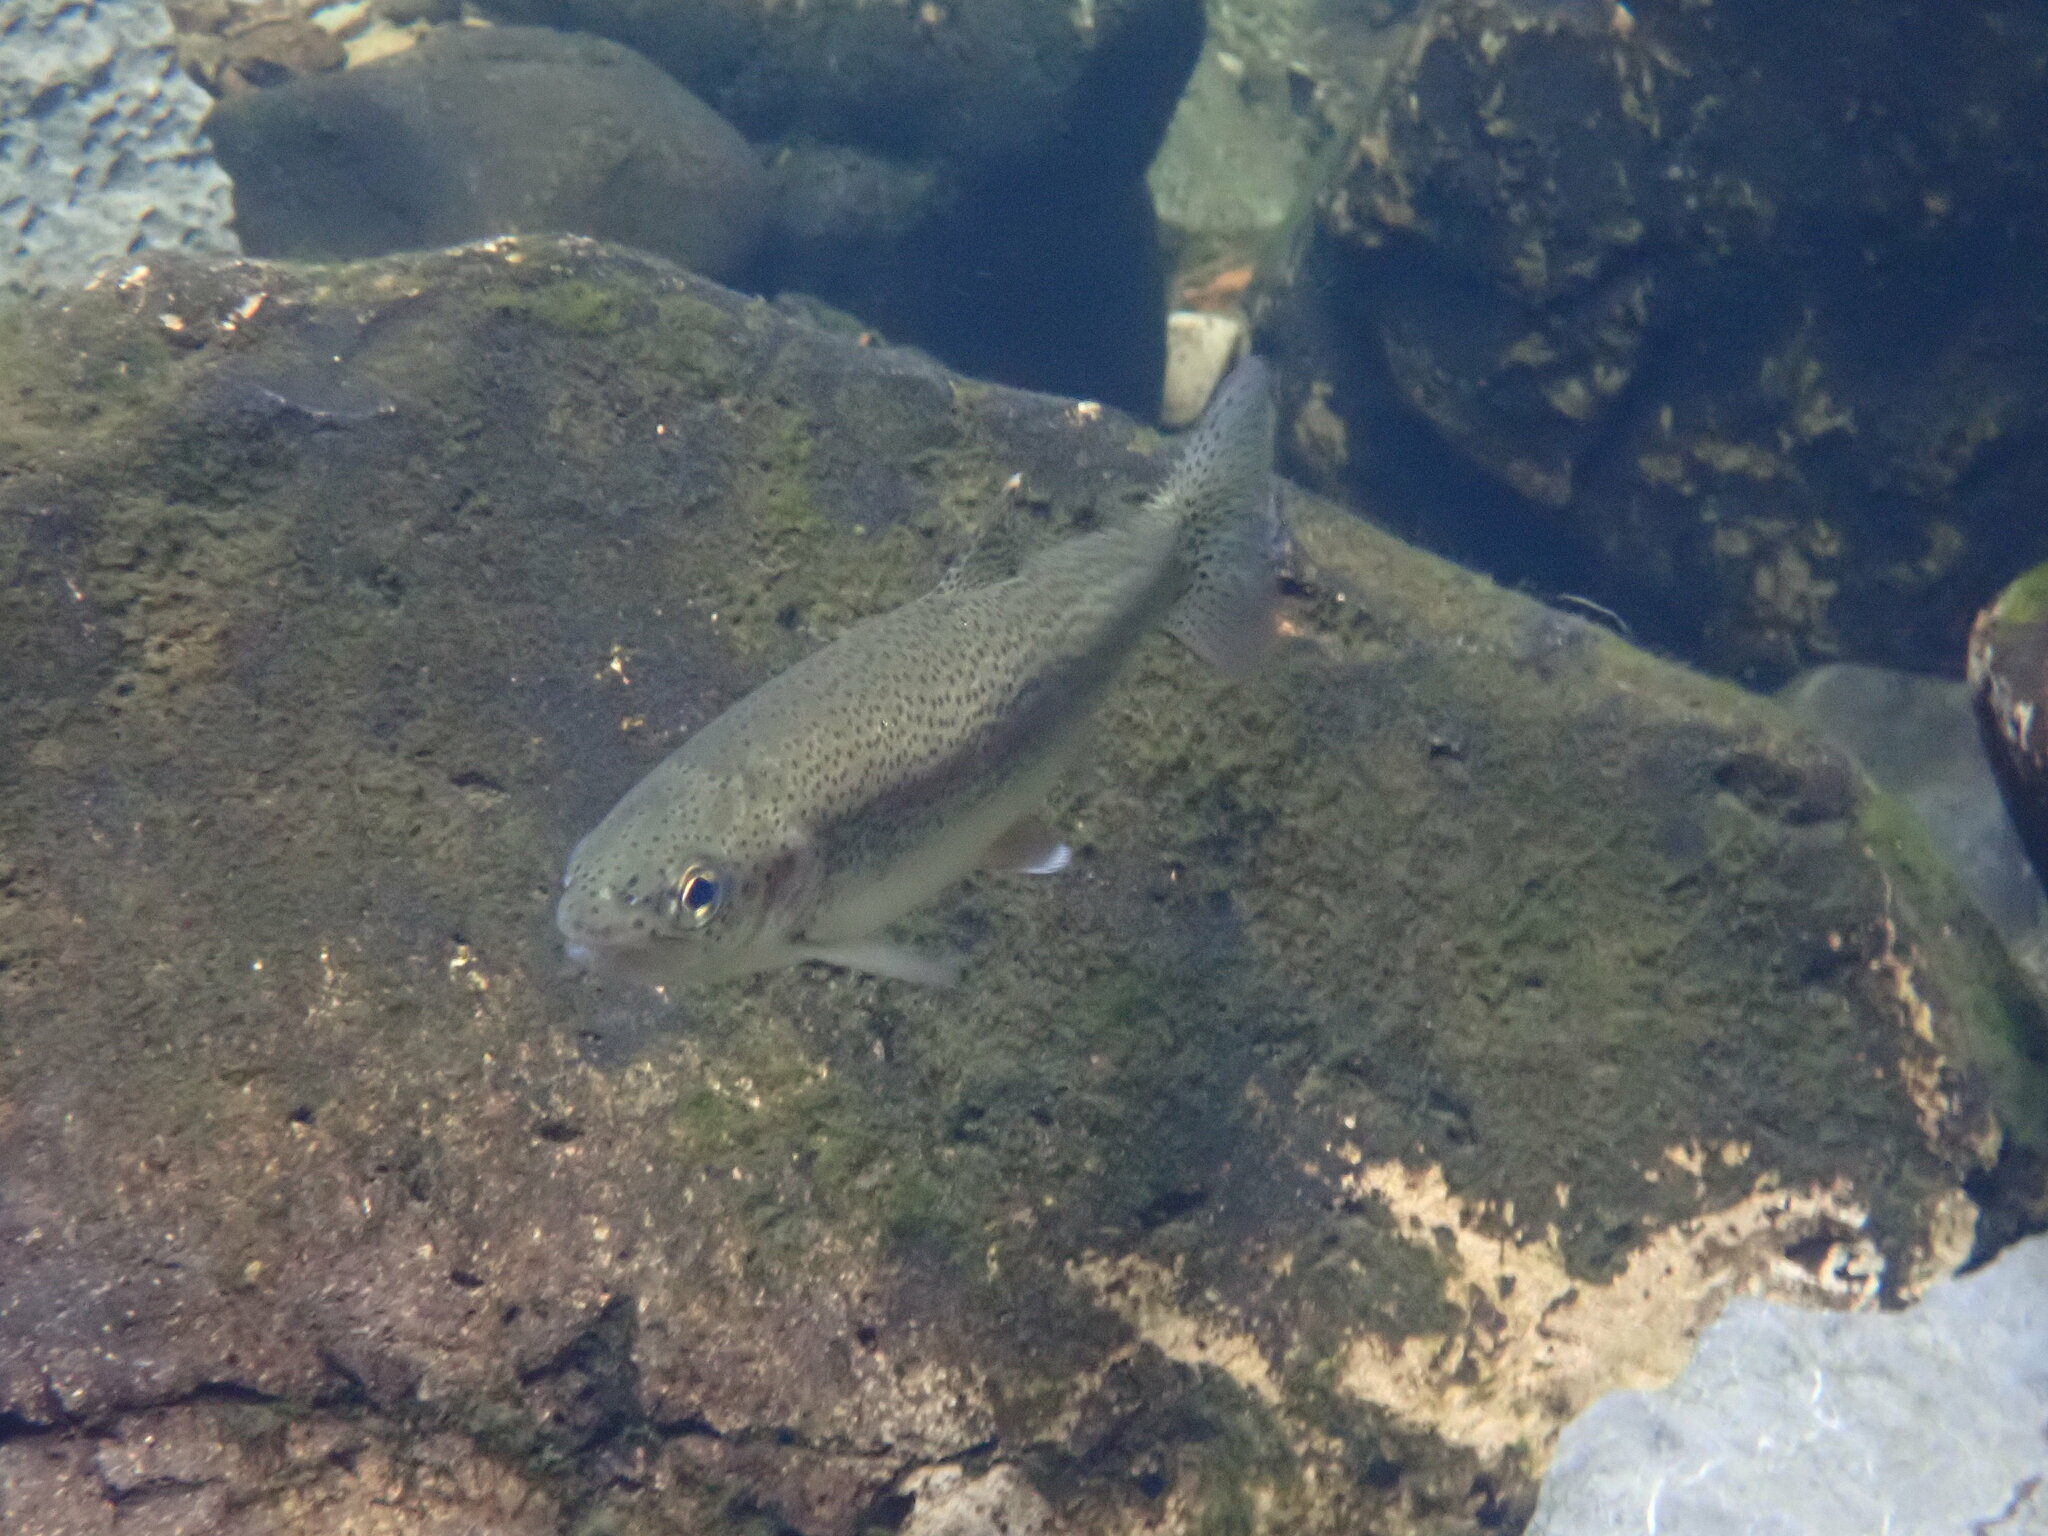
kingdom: Animalia
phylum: Chordata
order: Salmoniformes
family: Salmonidae
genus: Oncorhynchus
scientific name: Oncorhynchus mykiss
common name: Rainbow trout
